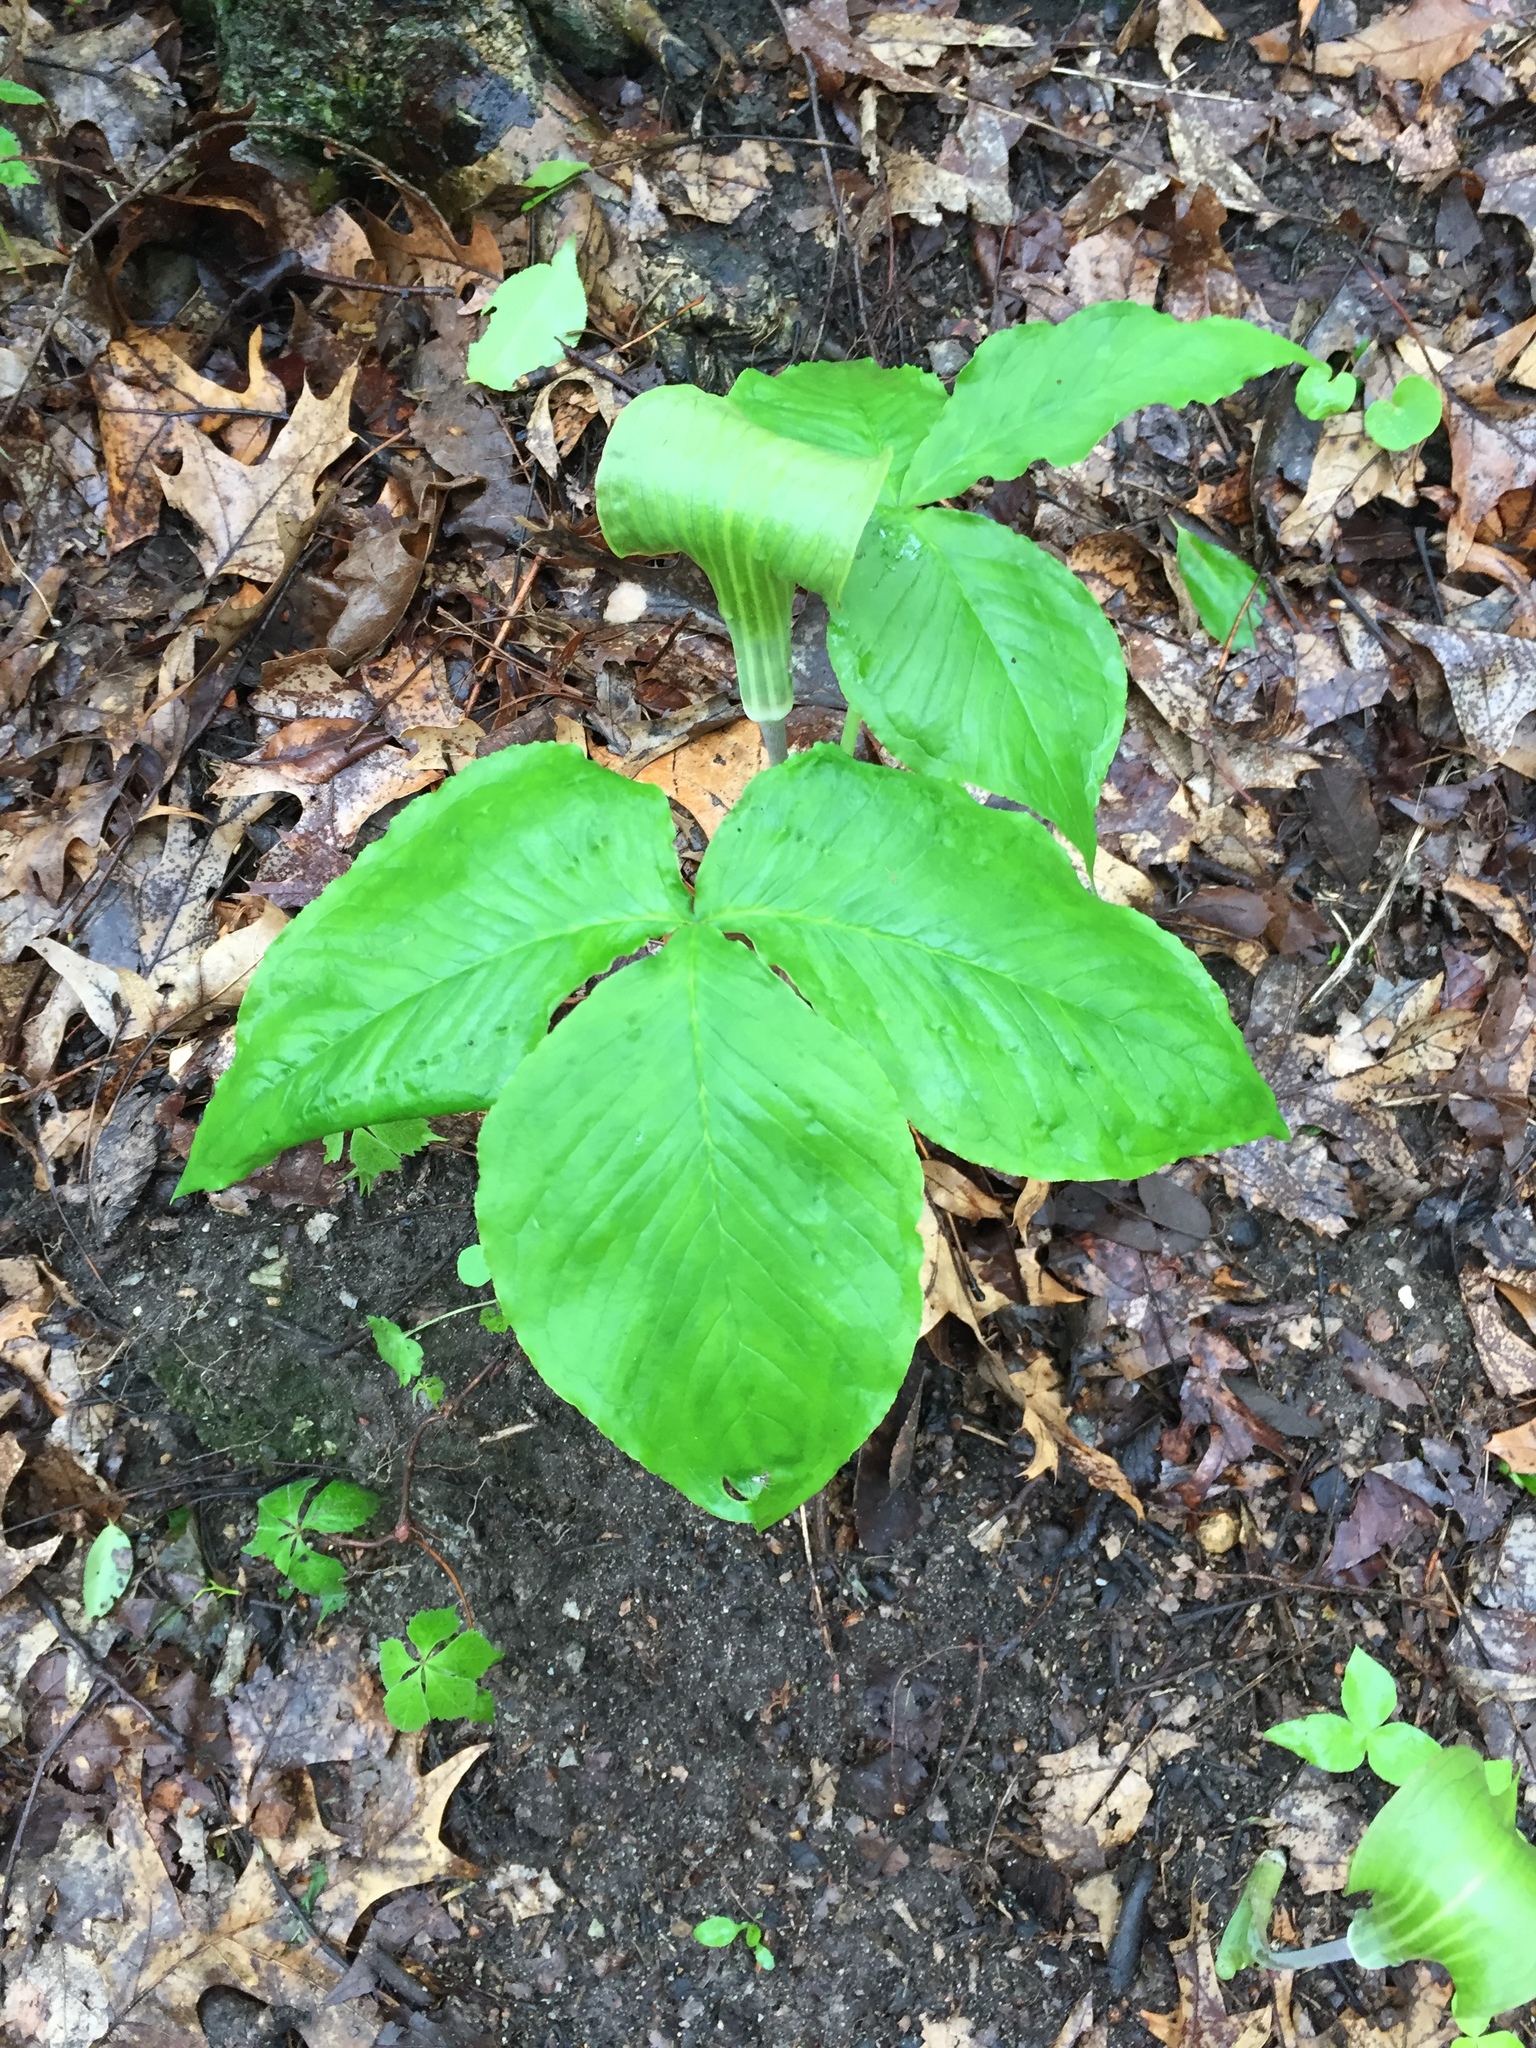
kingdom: Plantae
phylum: Tracheophyta
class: Liliopsida
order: Alismatales
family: Araceae
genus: Arisaema
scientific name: Arisaema triphyllum
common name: Jack-in-the-pulpit
